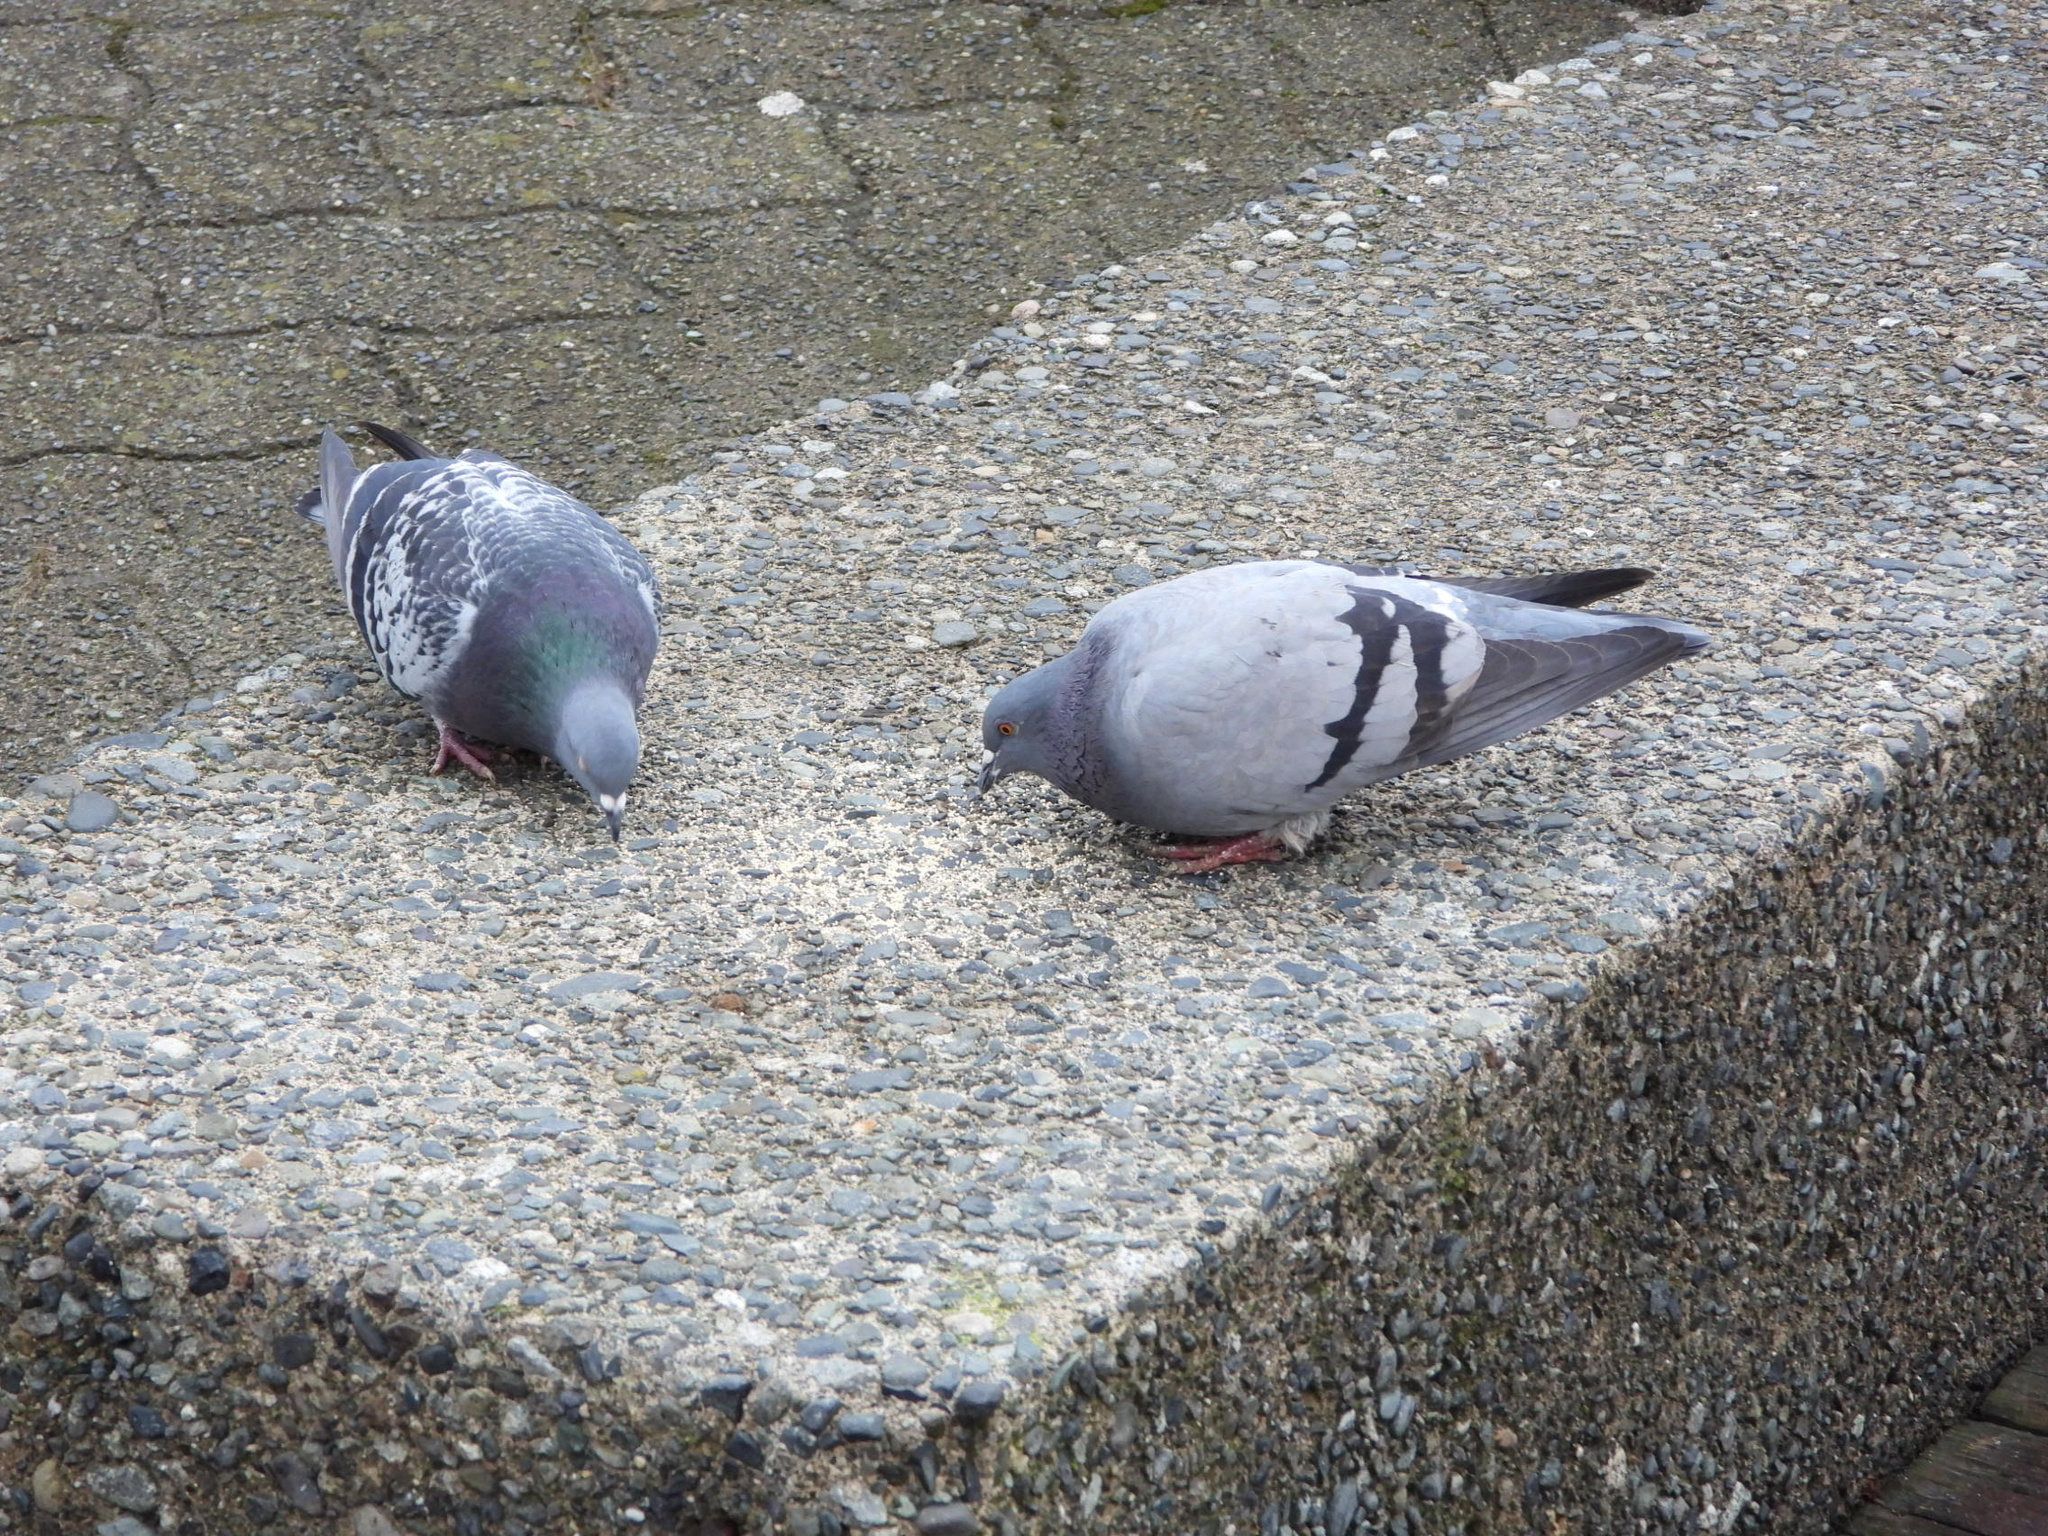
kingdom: Animalia
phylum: Chordata
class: Aves
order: Columbiformes
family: Columbidae
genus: Columba
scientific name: Columba livia
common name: Rock pigeon
